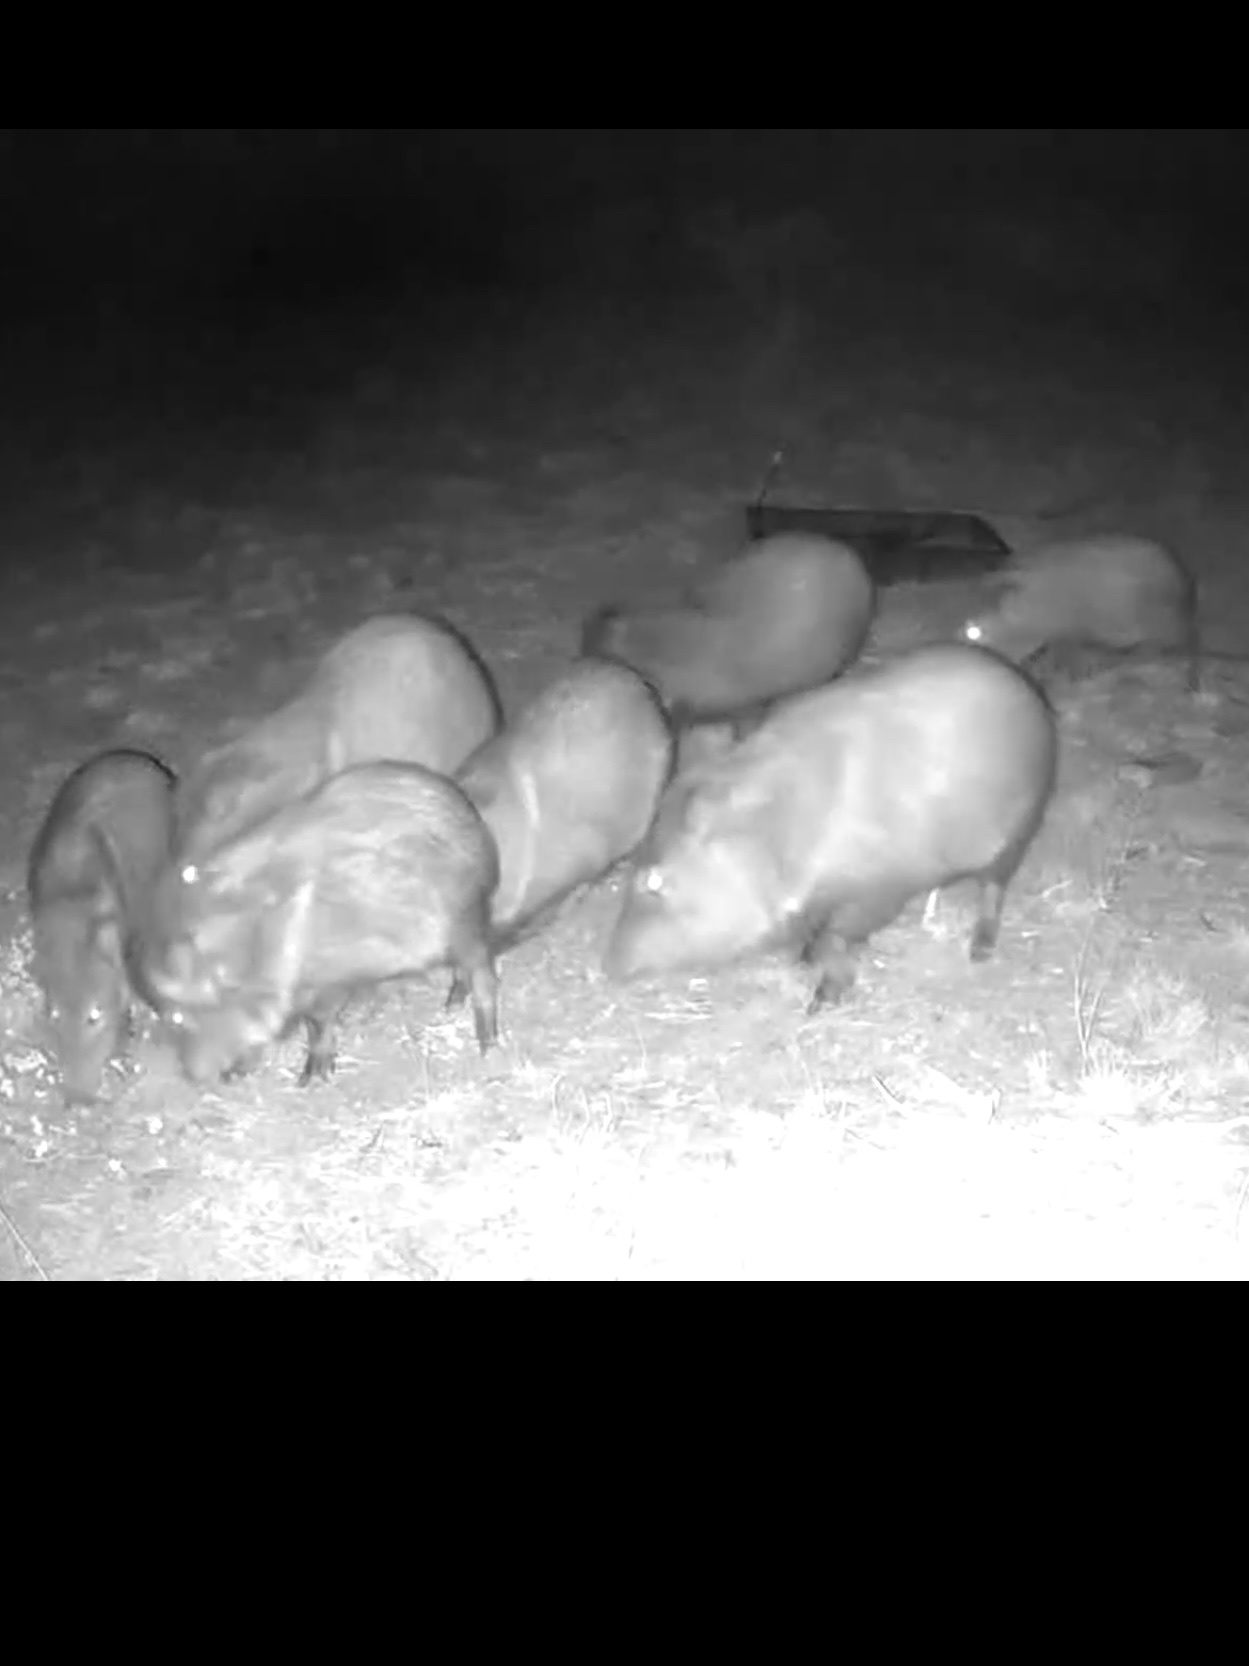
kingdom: Animalia
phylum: Chordata
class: Mammalia
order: Artiodactyla
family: Tayassuidae
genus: Pecari
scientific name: Pecari tajacu
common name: Collared peccary
